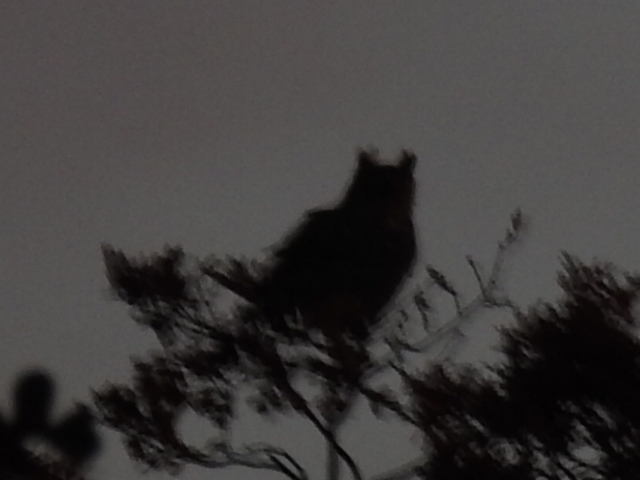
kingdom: Animalia
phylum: Chordata
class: Aves
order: Strigiformes
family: Strigidae
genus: Bubo
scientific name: Bubo virginianus
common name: Great horned owl
